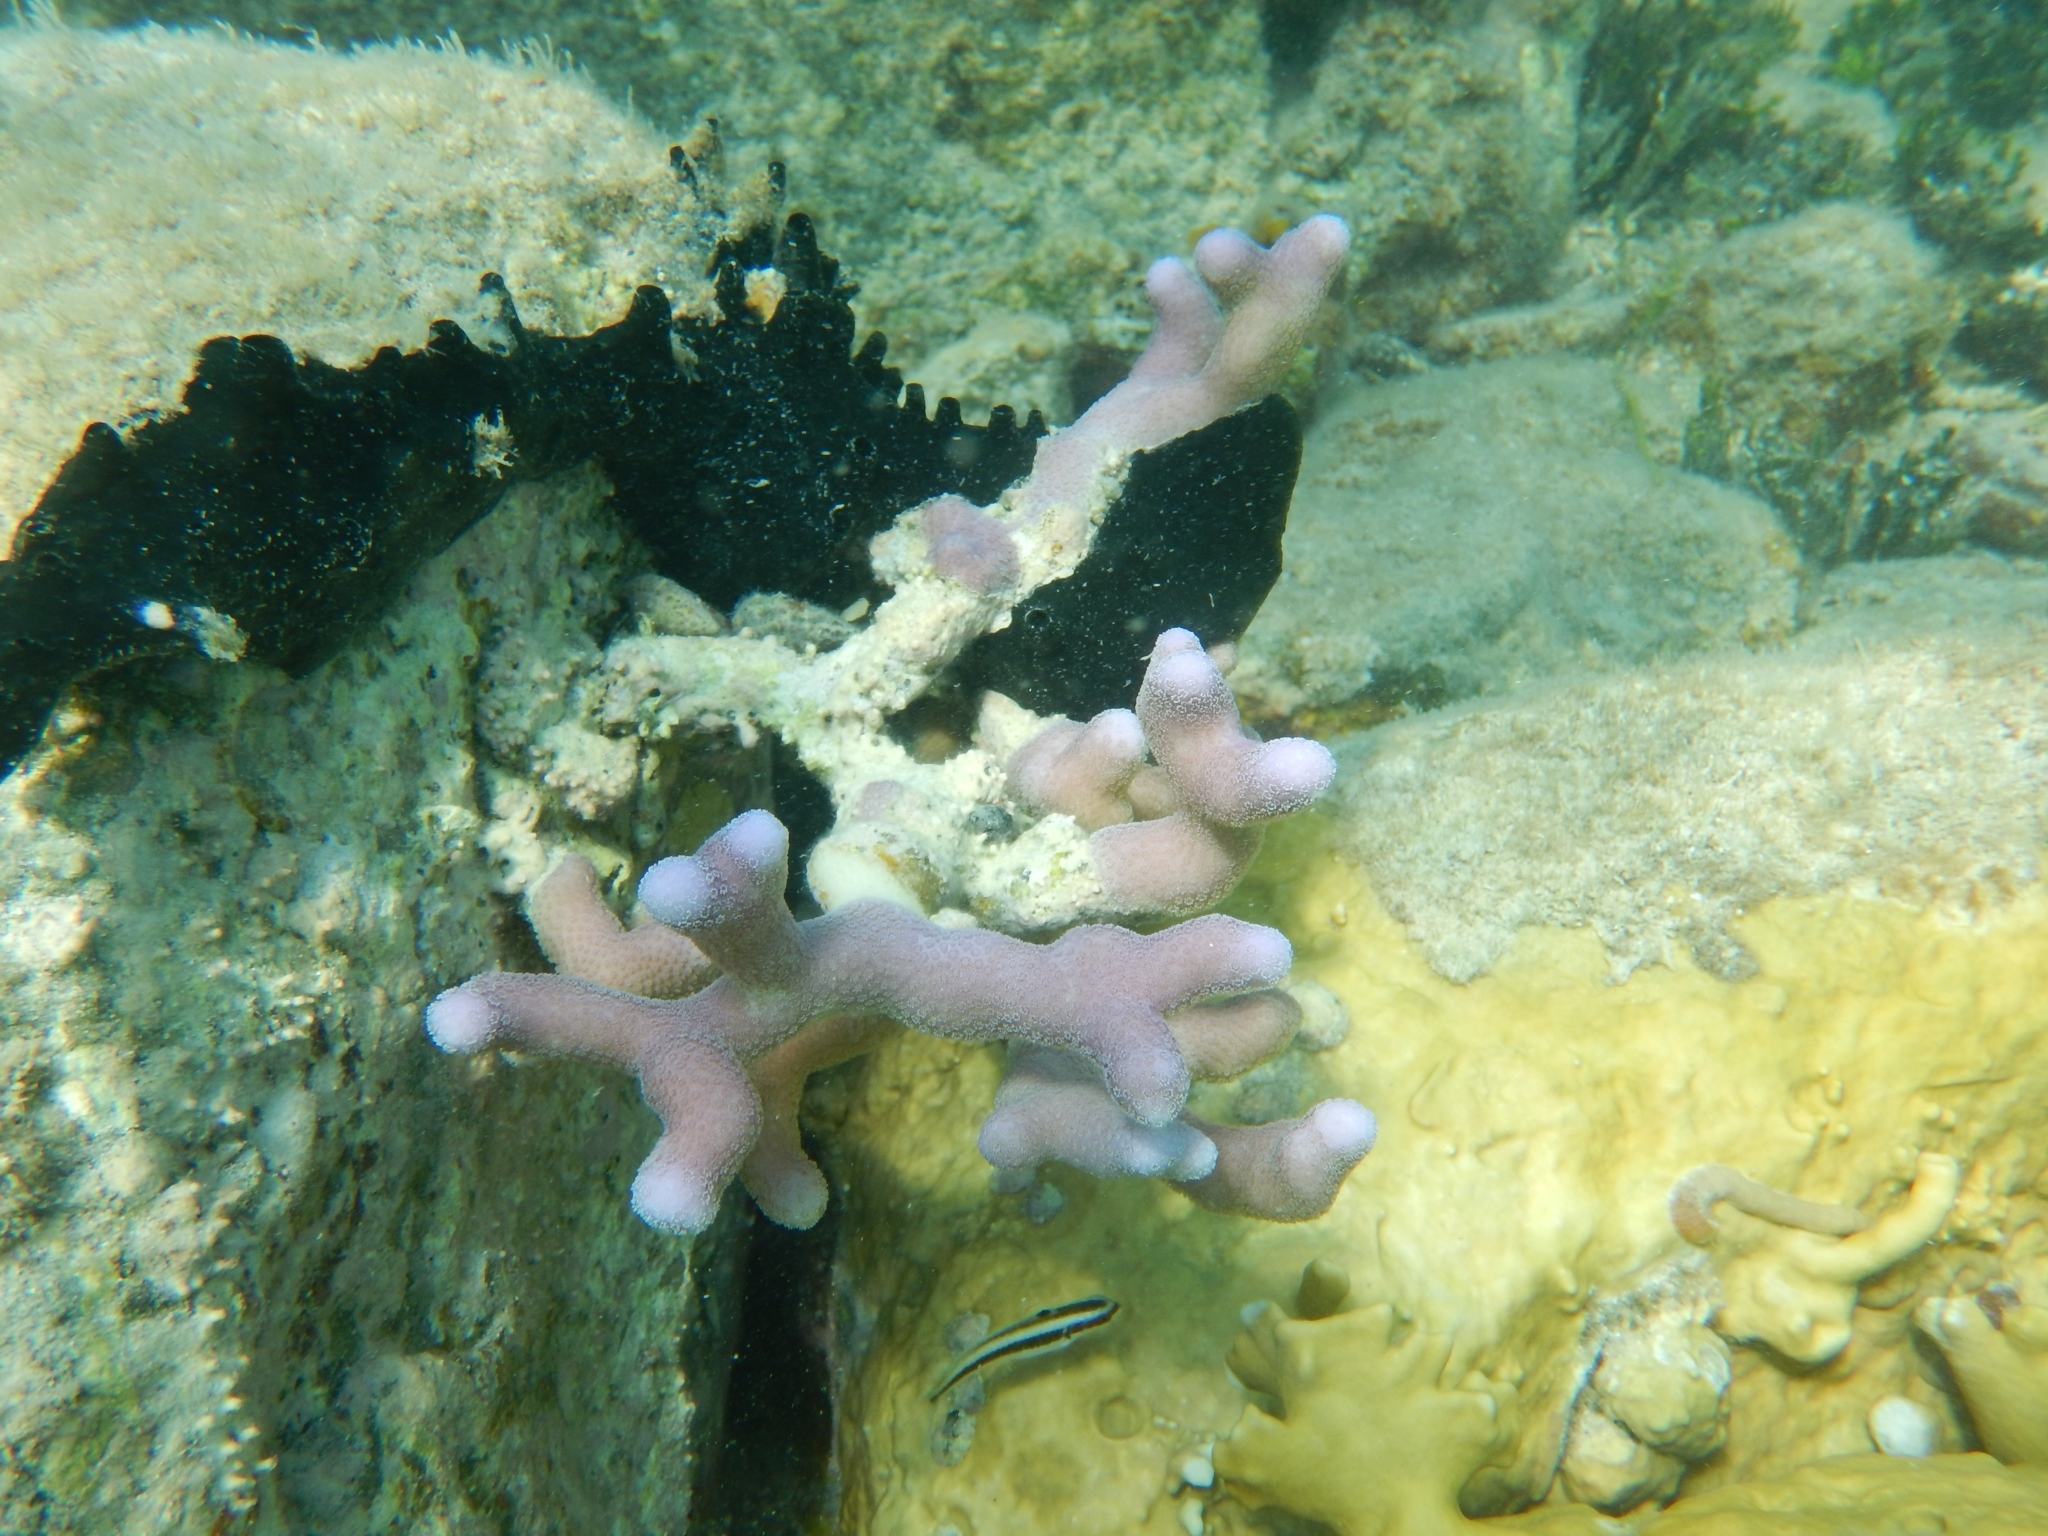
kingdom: Animalia
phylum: Cnidaria
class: Anthozoa
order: Scleractinia
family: Poritidae
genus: Porites
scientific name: Porites porites
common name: Finger coral
